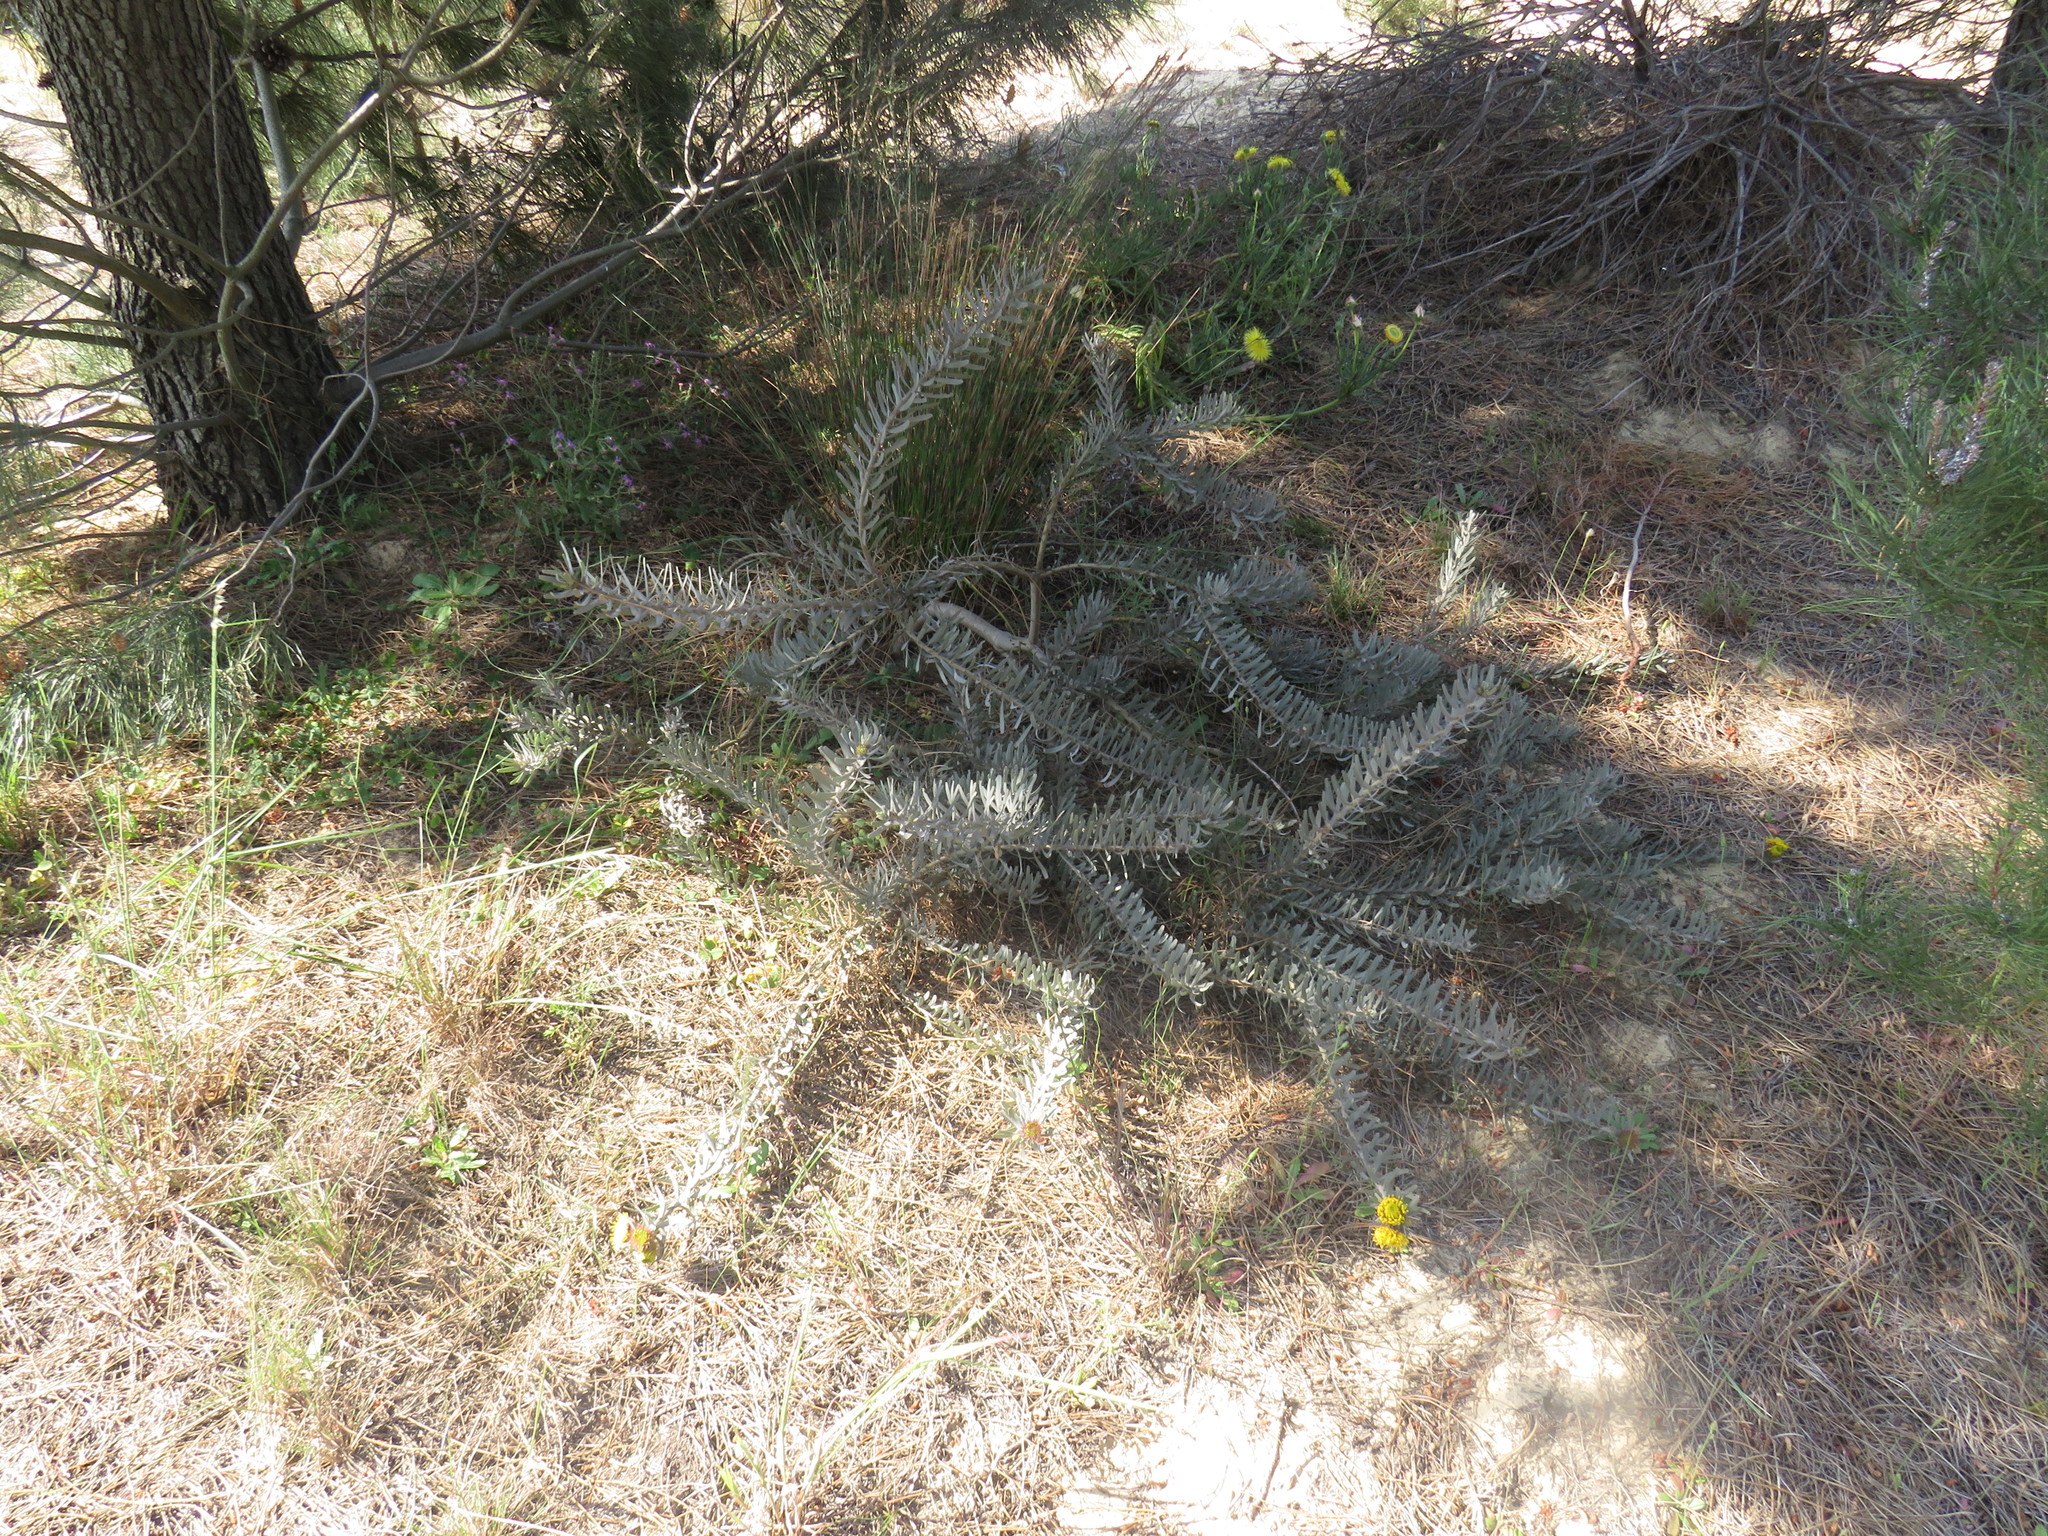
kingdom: Plantae
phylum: Tracheophyta
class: Magnoliopsida
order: Proteales
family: Proteaceae
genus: Leucospermum
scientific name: Leucospermum parile
